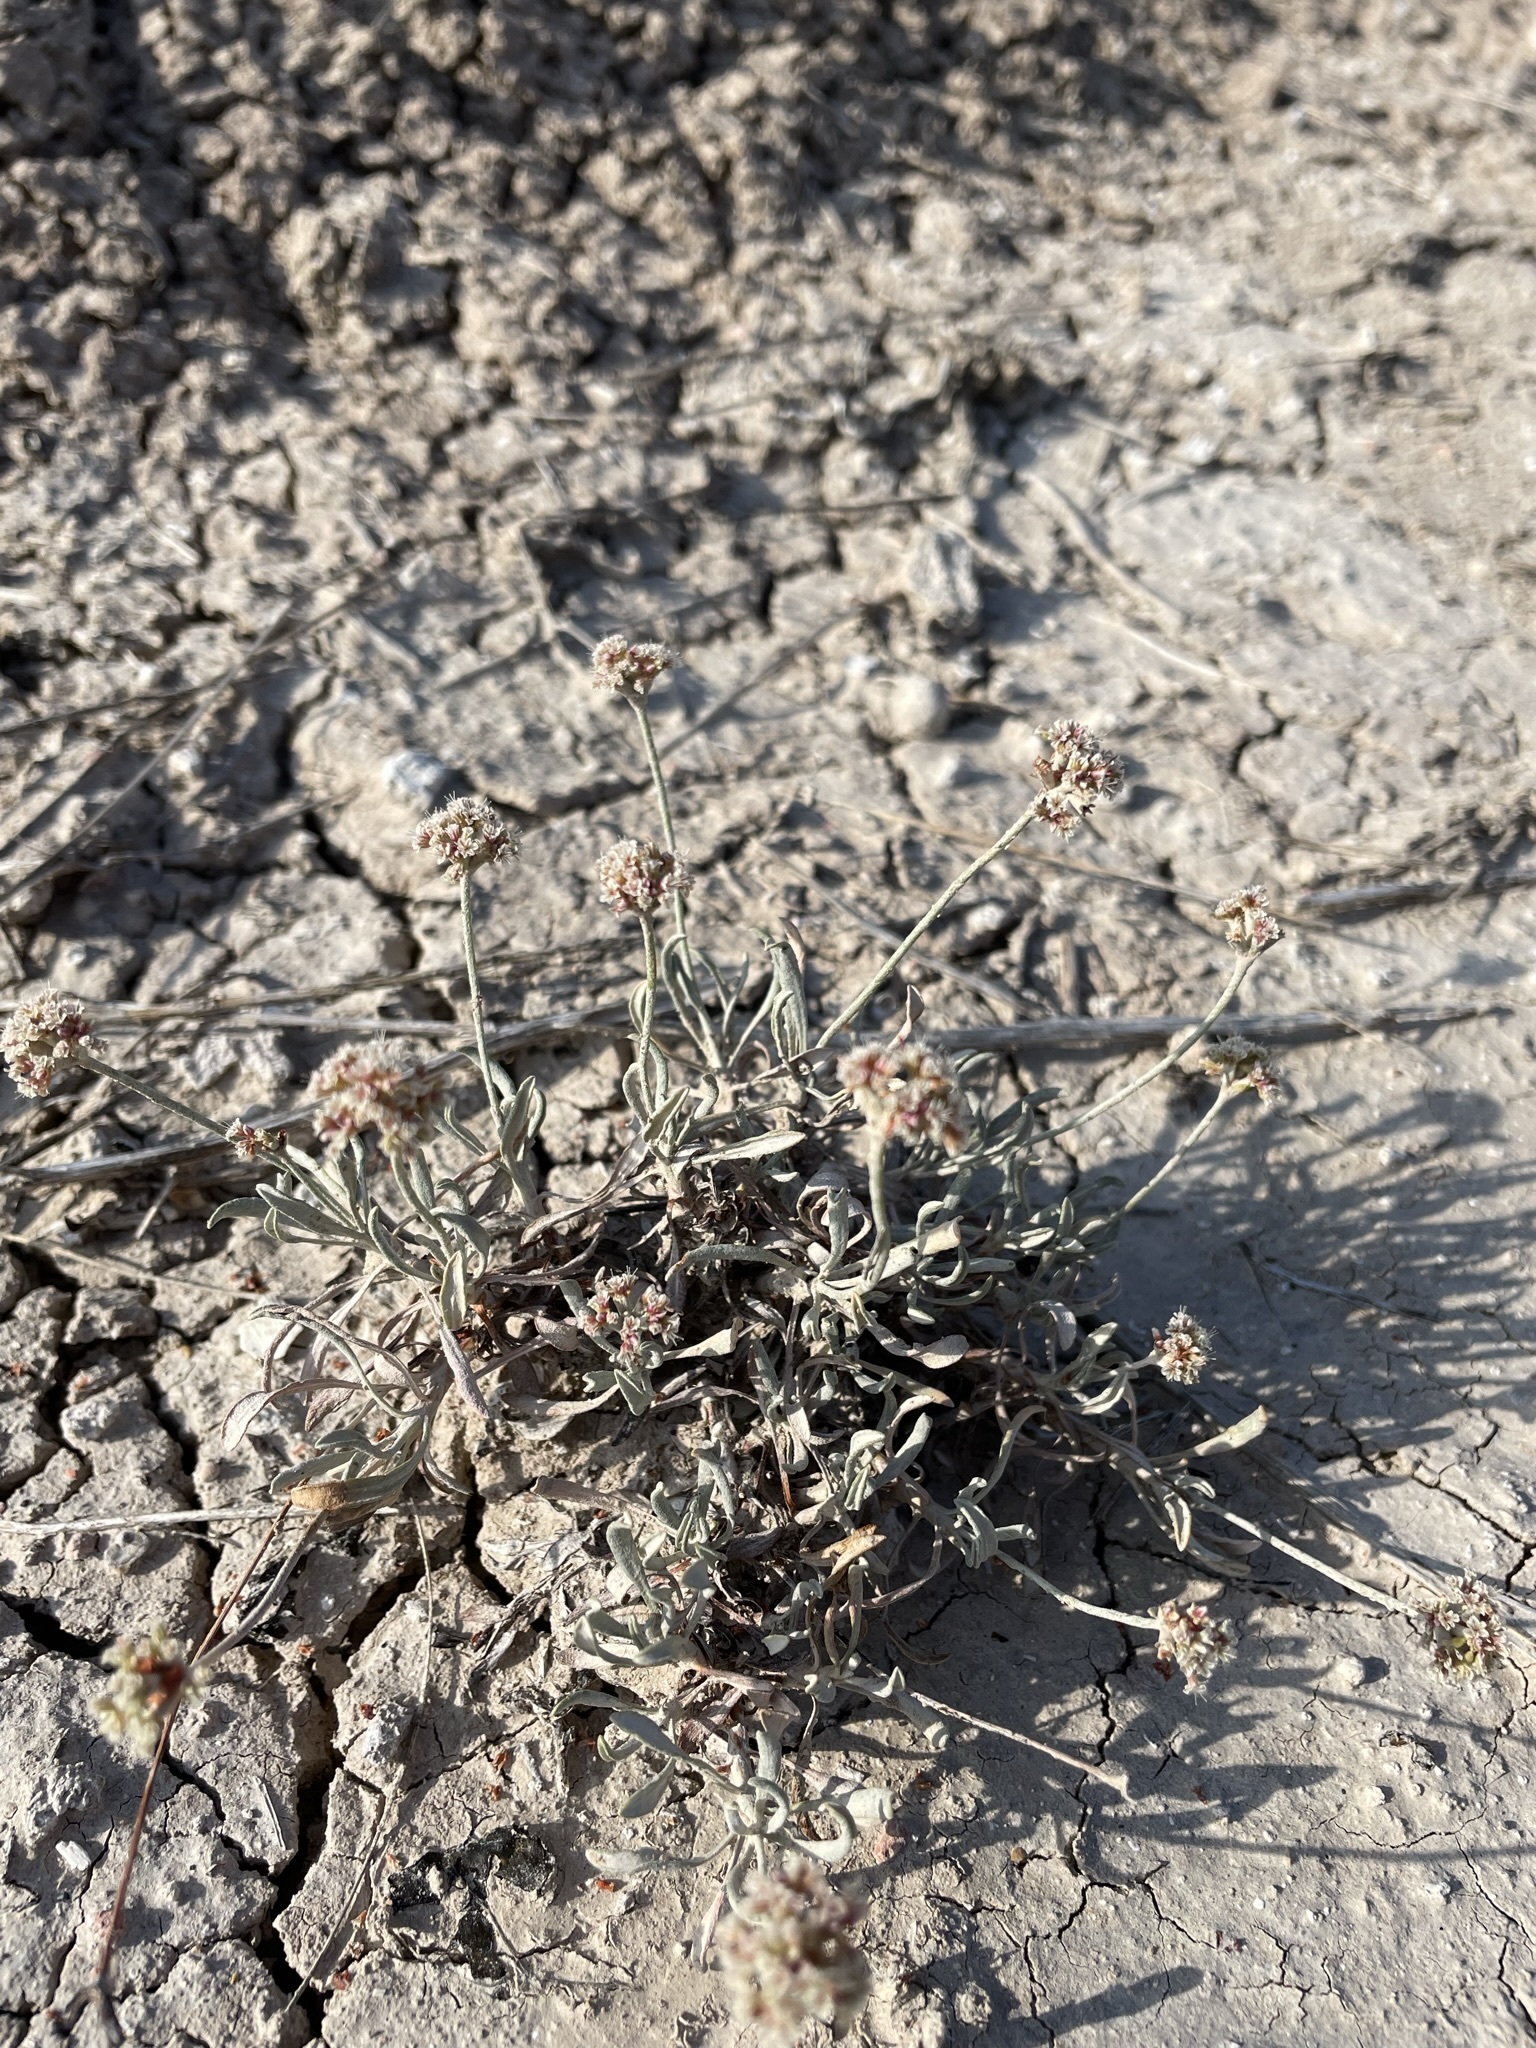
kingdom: Plantae
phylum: Tracheophyta
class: Magnoliopsida
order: Caryophyllales
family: Polygonaceae
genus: Eriogonum
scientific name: Eriogonum pauciflorum
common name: Few-flower wild buckwheat
